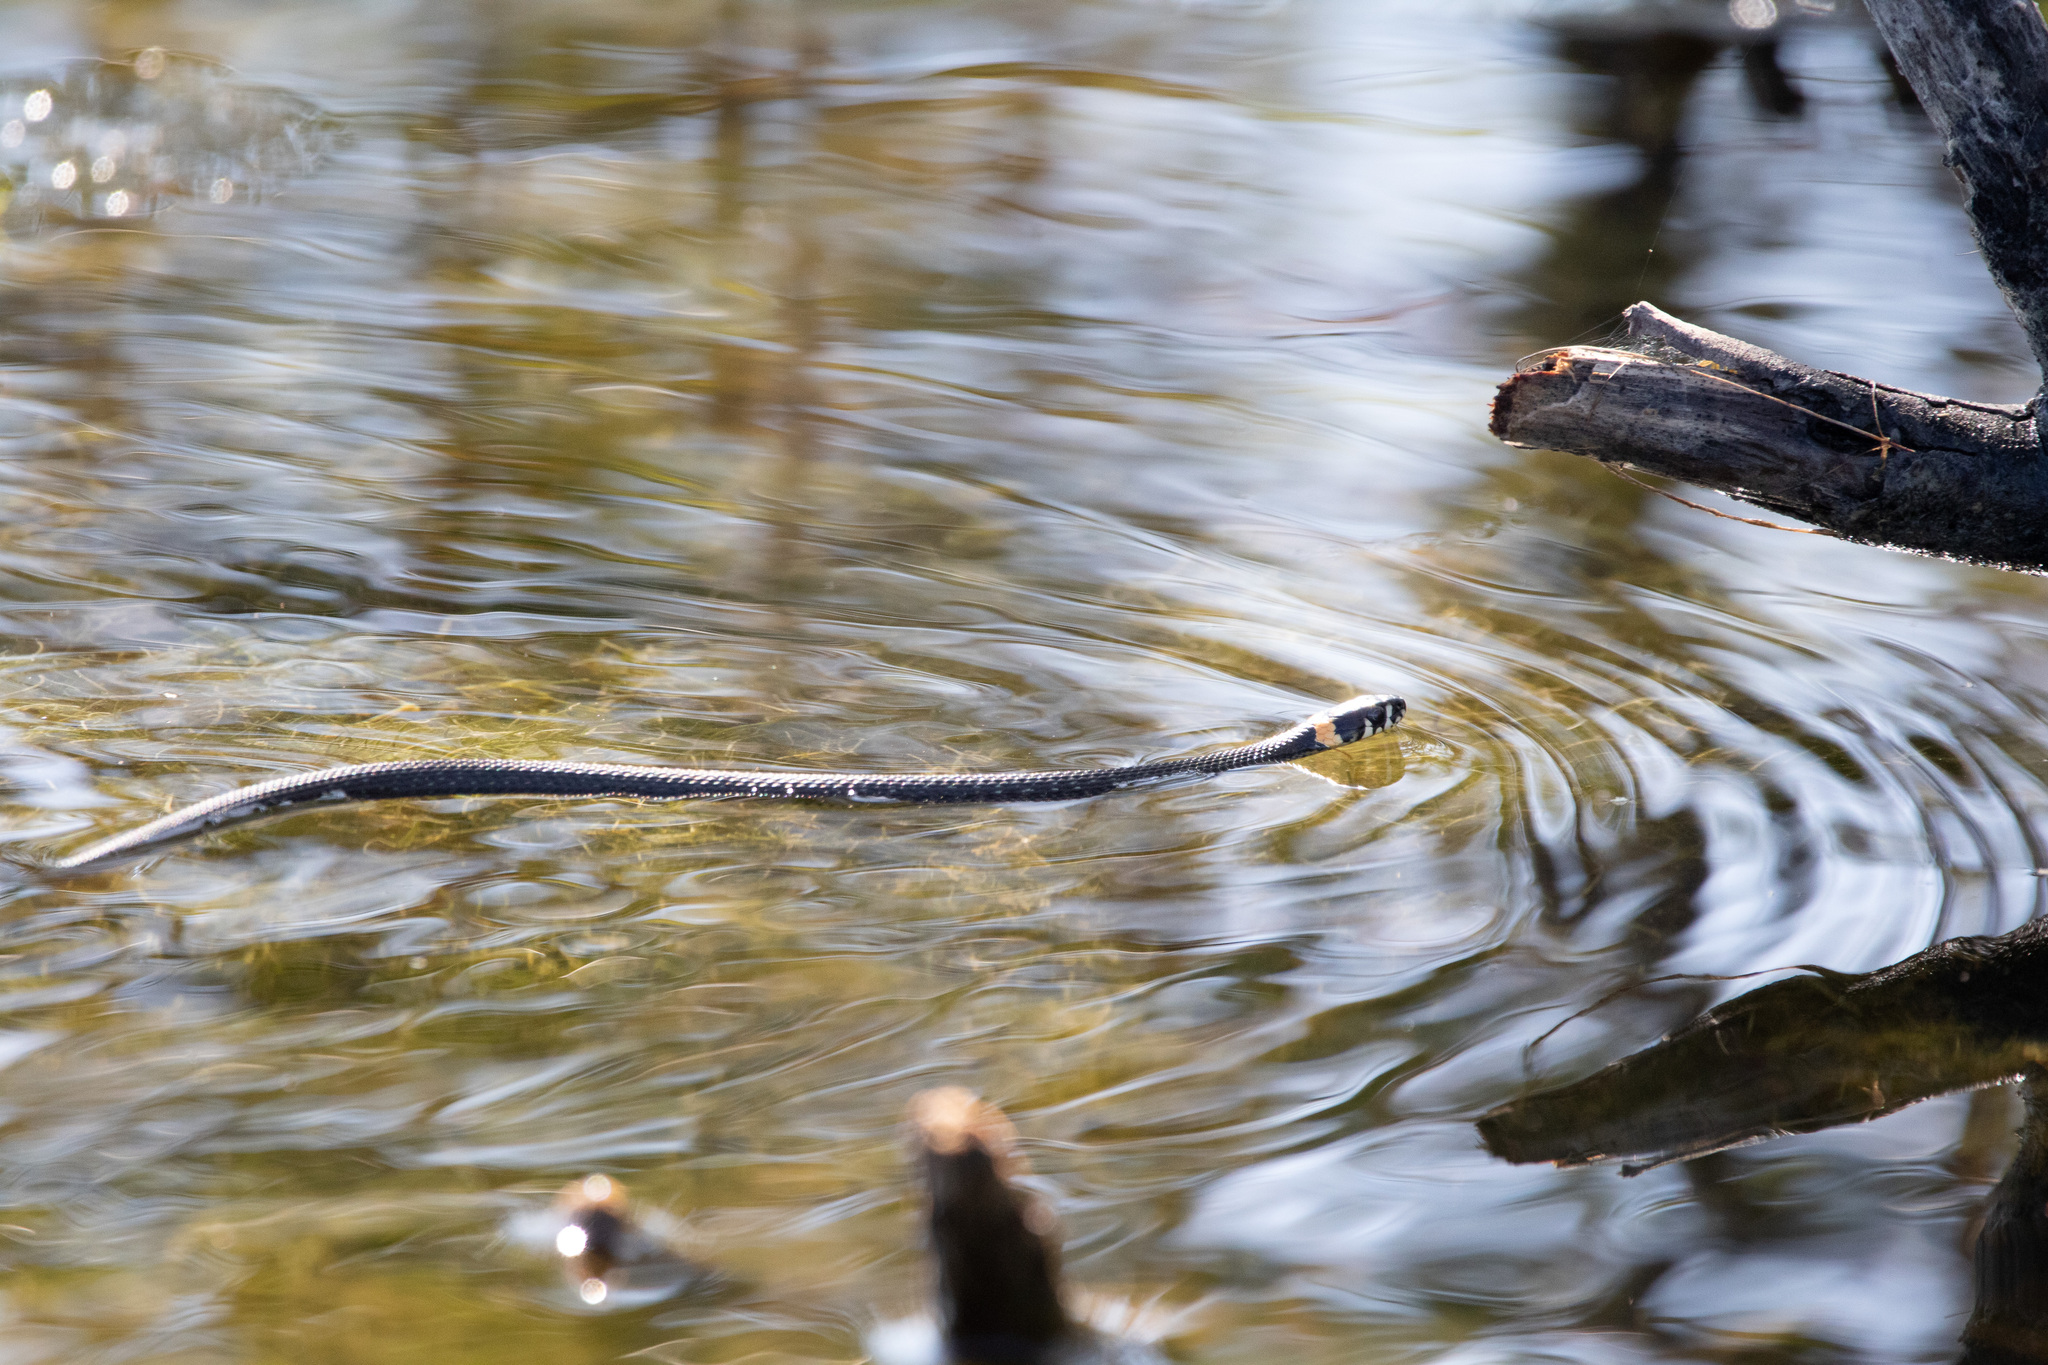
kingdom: Animalia
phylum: Chordata
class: Squamata
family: Colubridae
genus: Natrix
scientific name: Natrix natrix
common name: Grass snake
